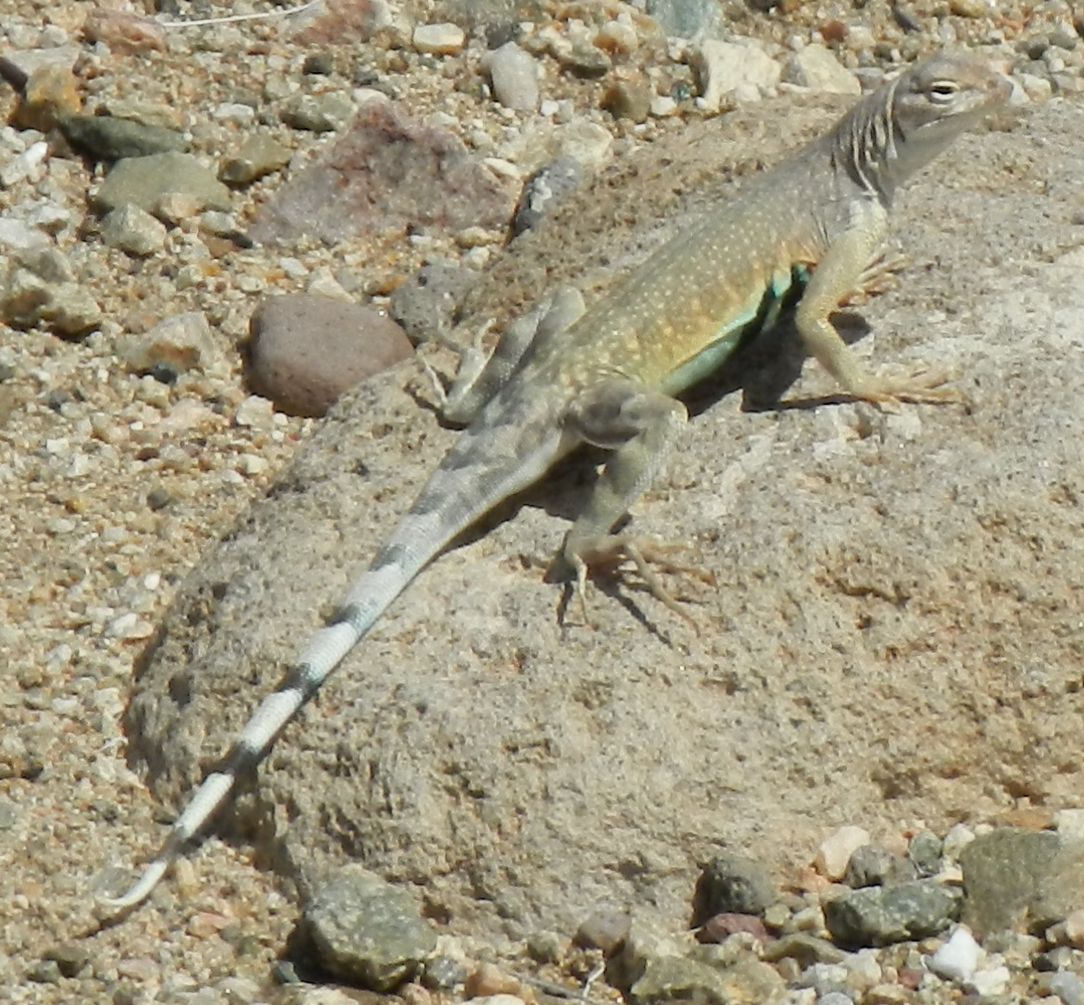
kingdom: Animalia
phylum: Chordata
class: Squamata
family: Phrynosomatidae
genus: Callisaurus
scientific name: Callisaurus draconoides
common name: Zebra-tailed lizard
